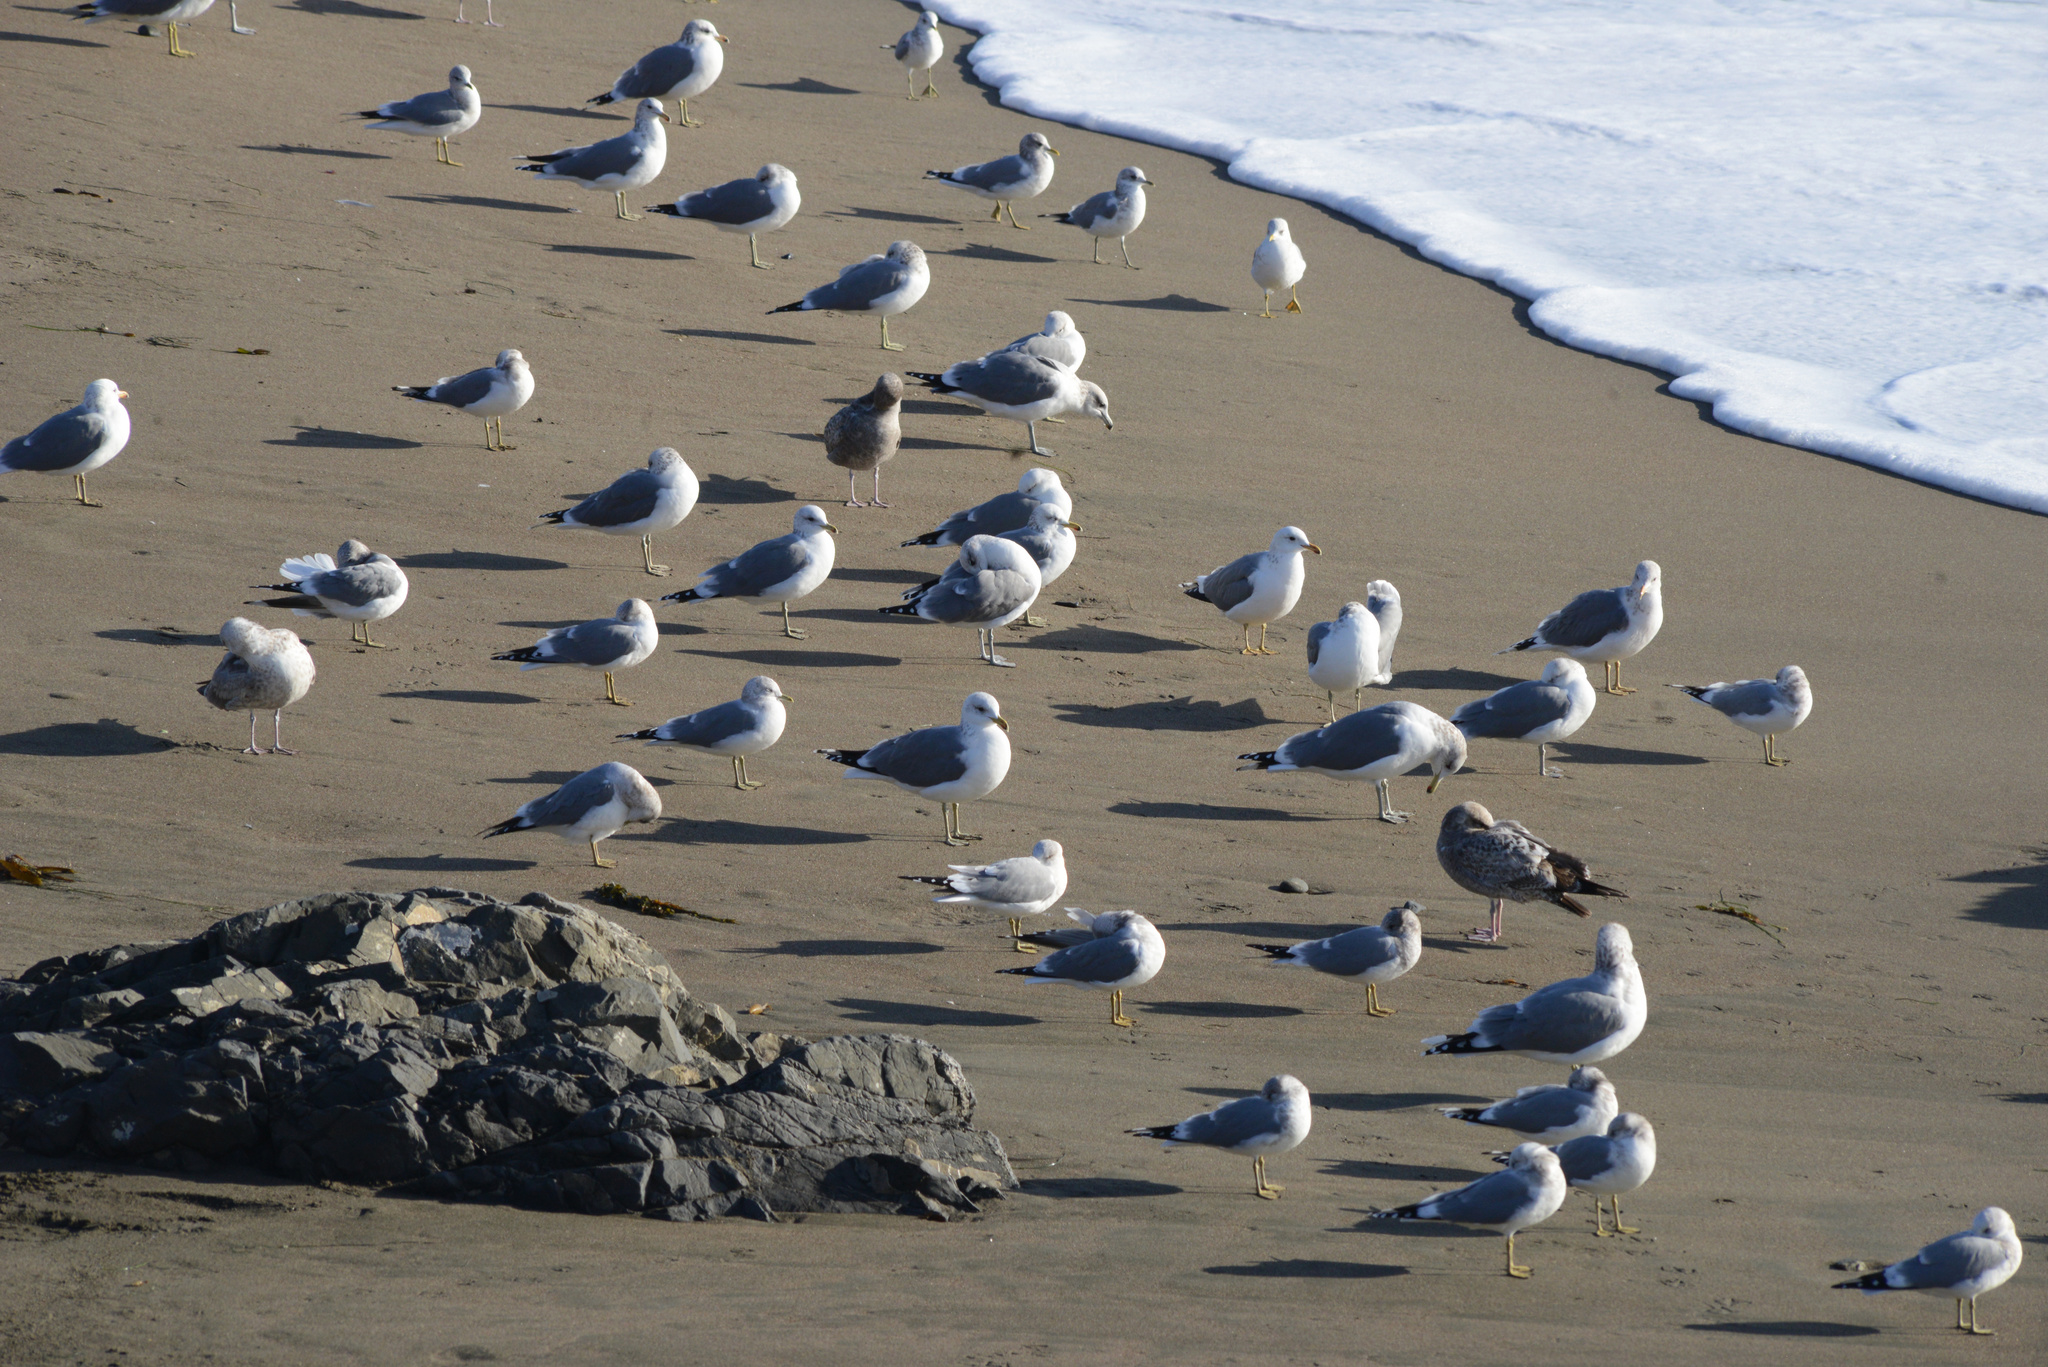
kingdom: Animalia
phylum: Chordata
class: Aves
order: Charadriiformes
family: Laridae
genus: Larus
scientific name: Larus brachyrhynchus
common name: Short-billed gull
